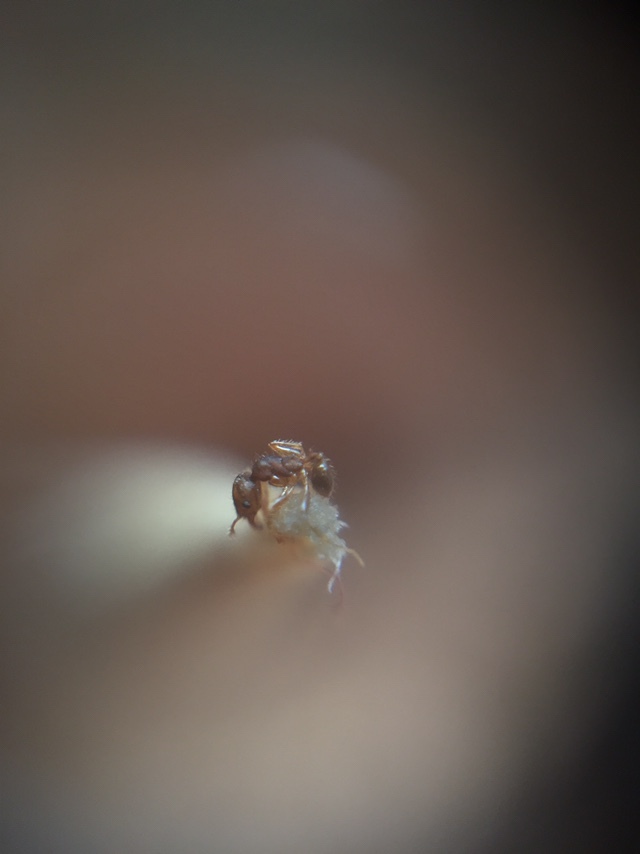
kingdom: Animalia
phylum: Arthropoda
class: Insecta
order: Hymenoptera
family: Formicidae
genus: Pheidole
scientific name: Pheidole parva
